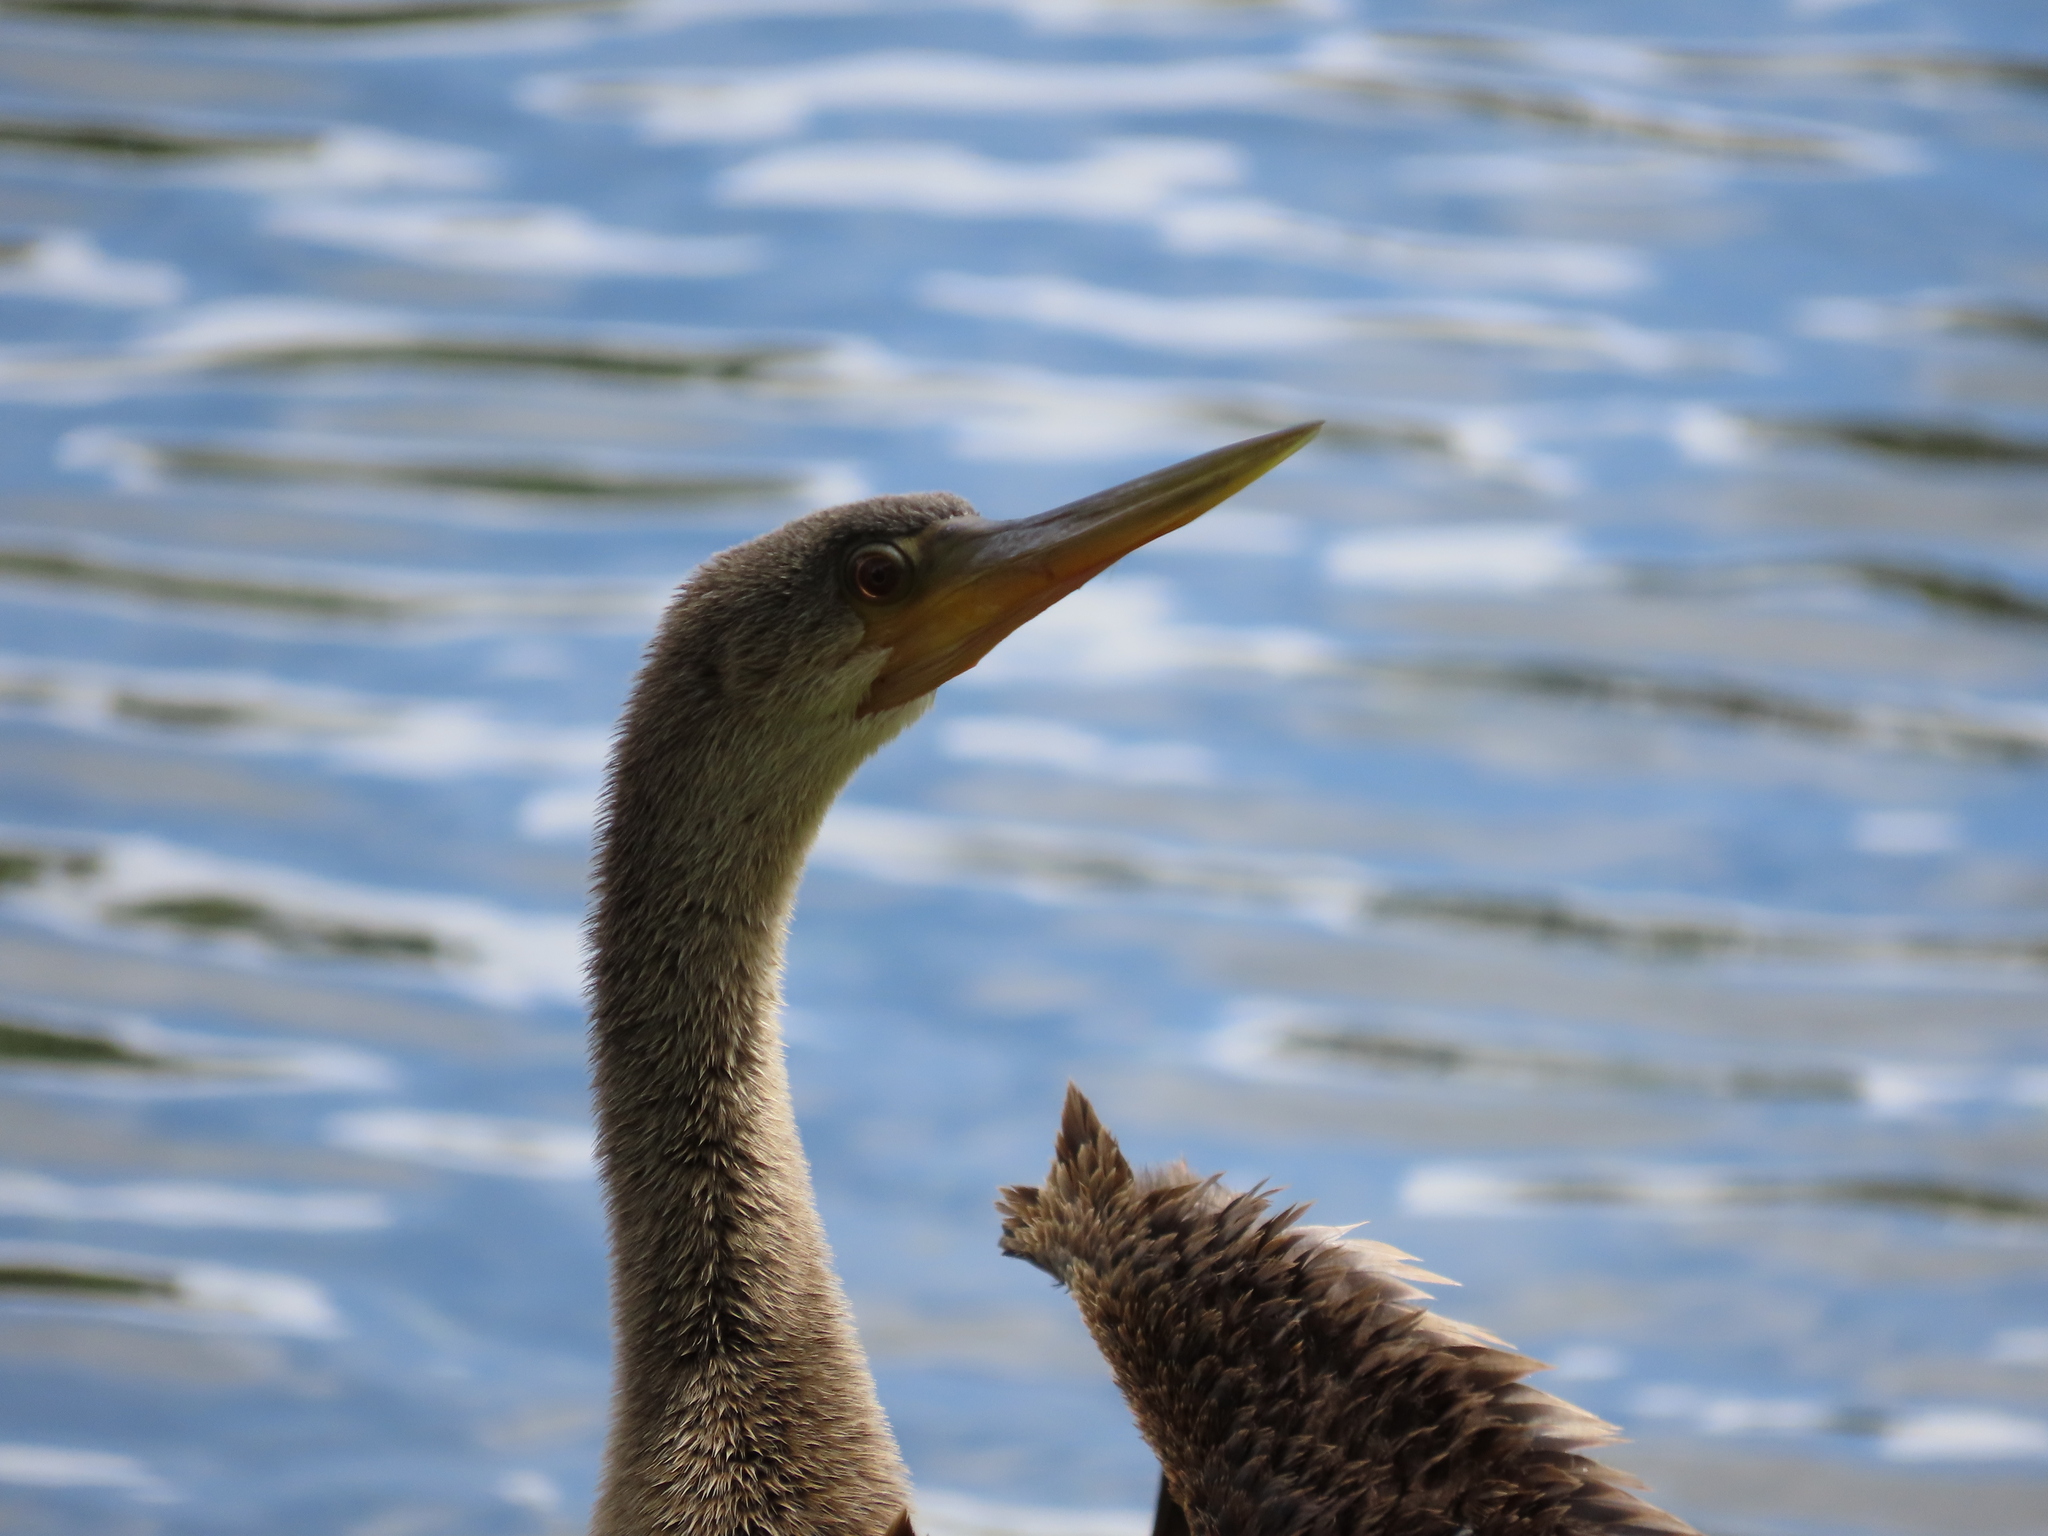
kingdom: Animalia
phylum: Chordata
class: Aves
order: Suliformes
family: Anhingidae
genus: Anhinga
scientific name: Anhinga anhinga
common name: Anhinga
